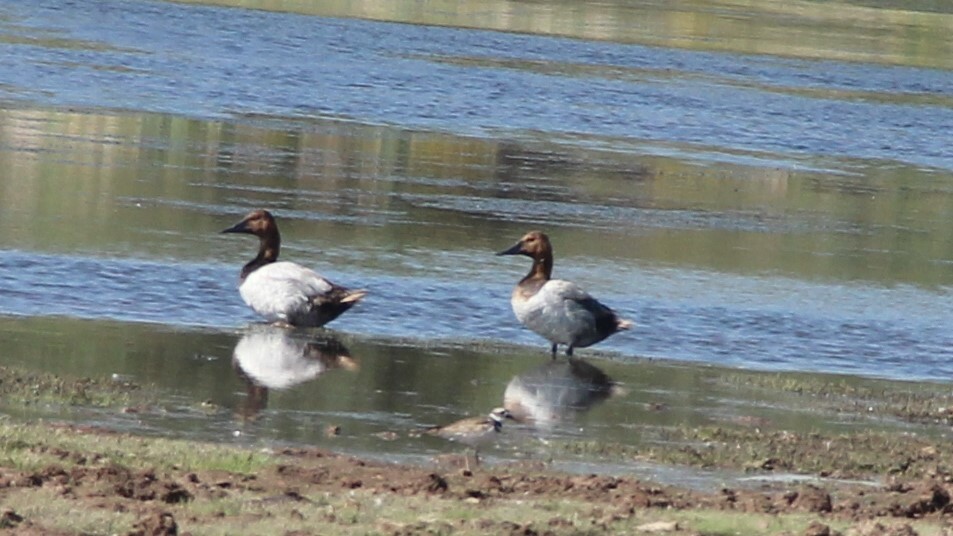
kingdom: Animalia
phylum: Chordata
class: Aves
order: Anseriformes
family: Anatidae
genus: Aythya
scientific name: Aythya valisineria
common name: Canvasback
